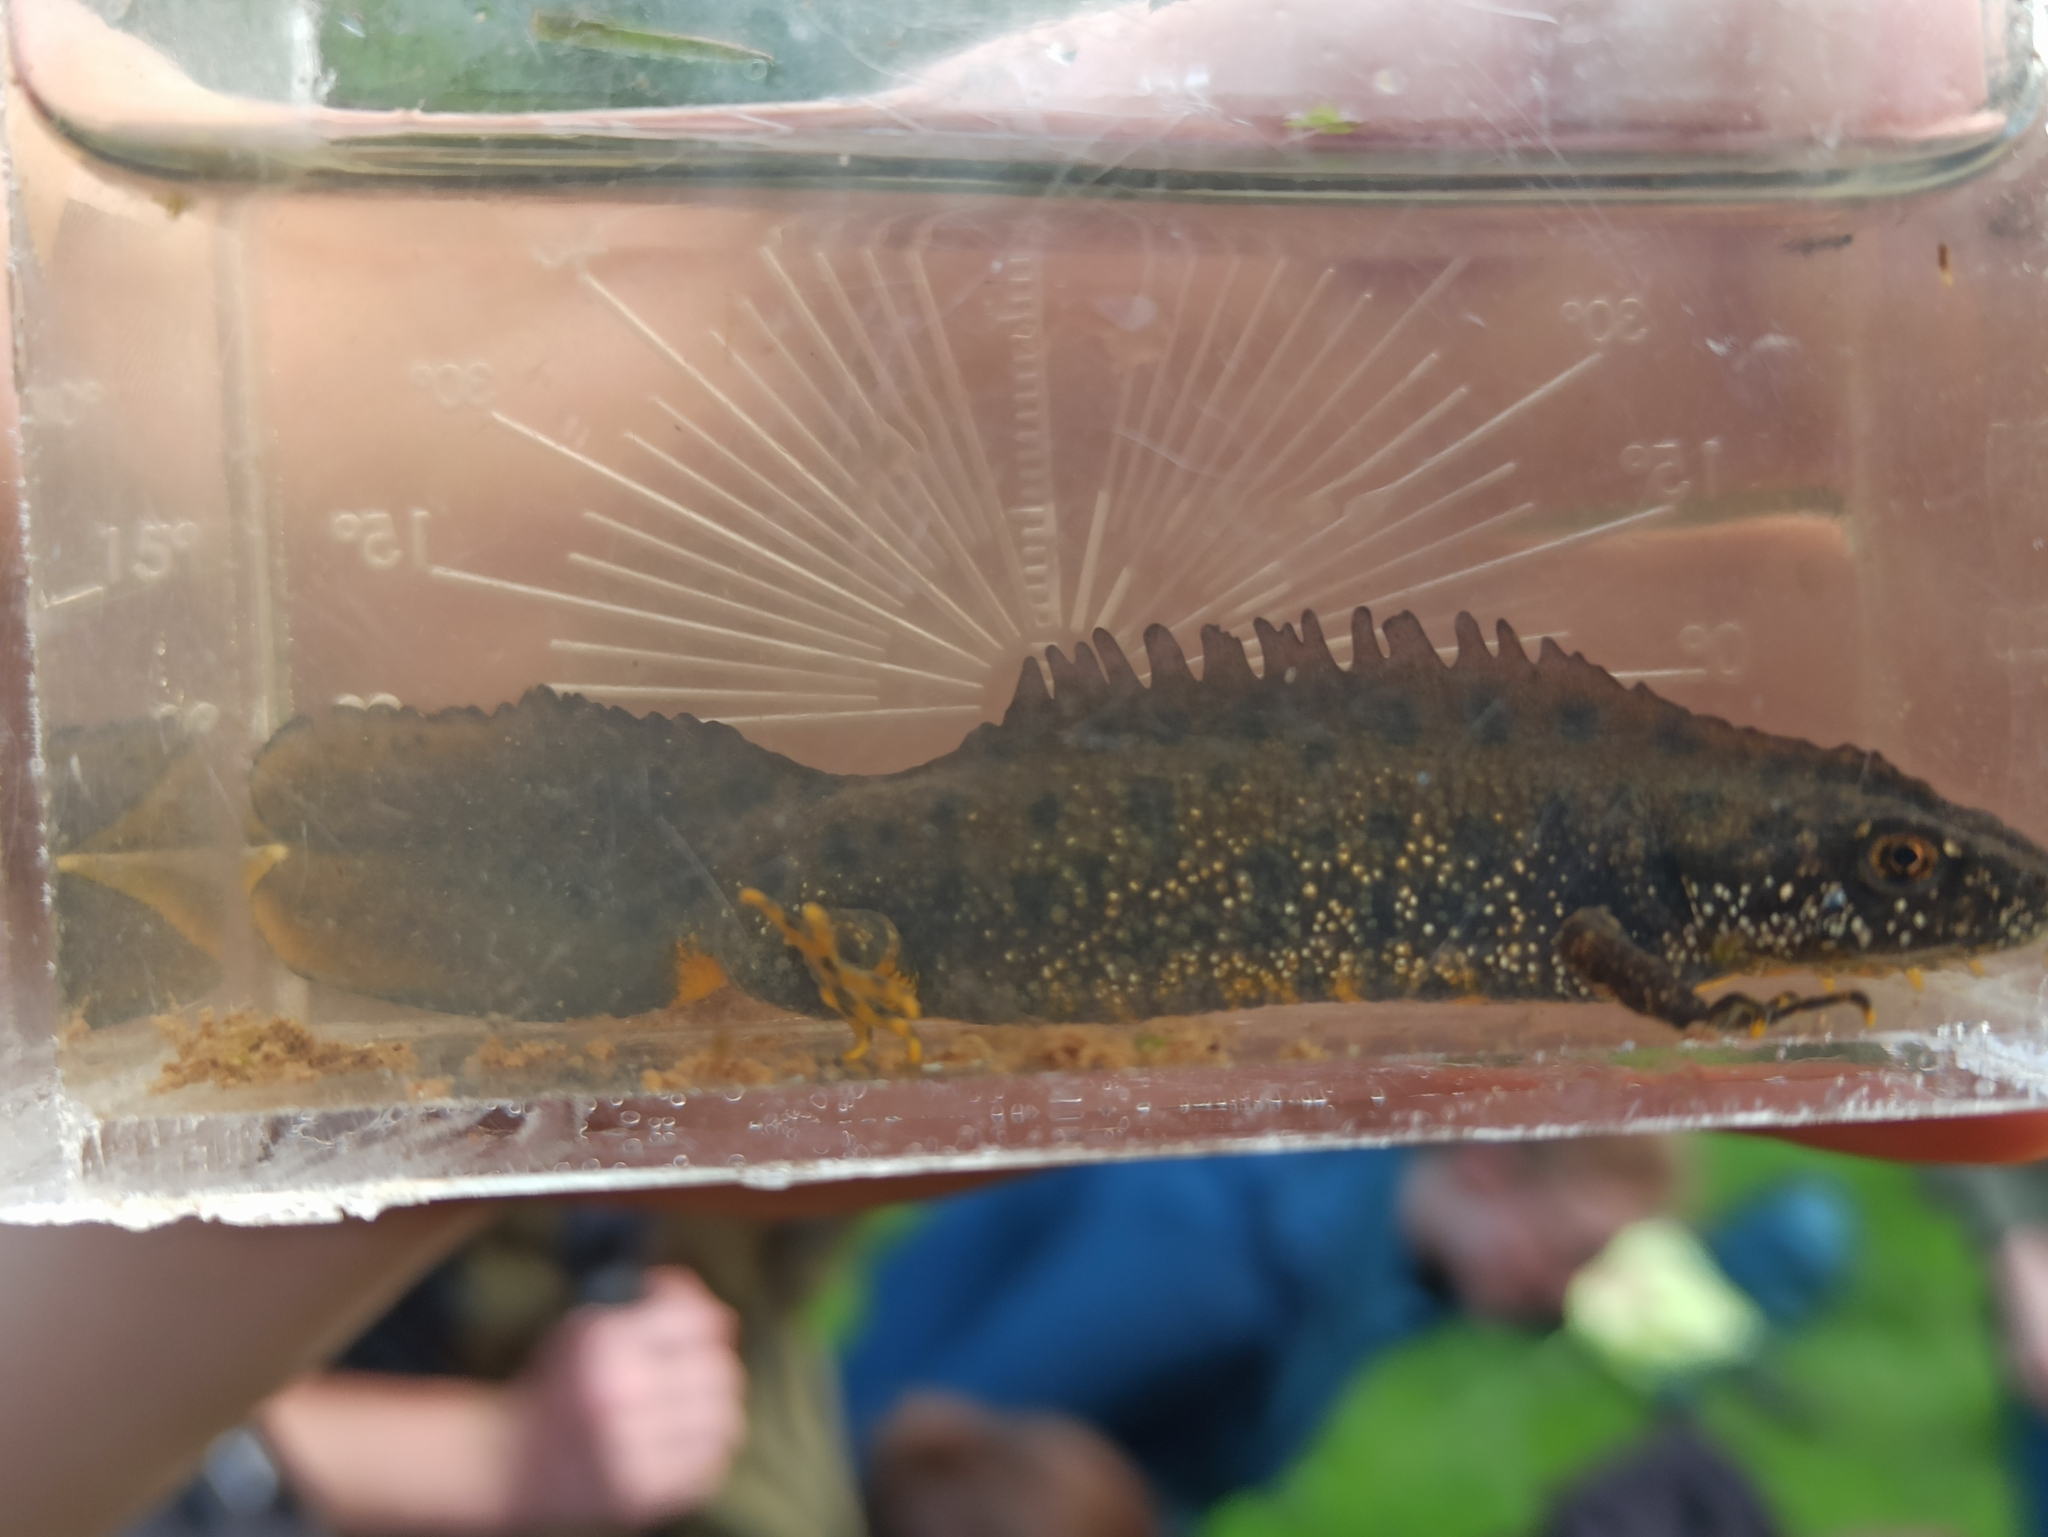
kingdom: Animalia
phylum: Chordata
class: Amphibia
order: Caudata
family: Salamandridae
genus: Triturus
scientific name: Triturus cristatus
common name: Crested newt
